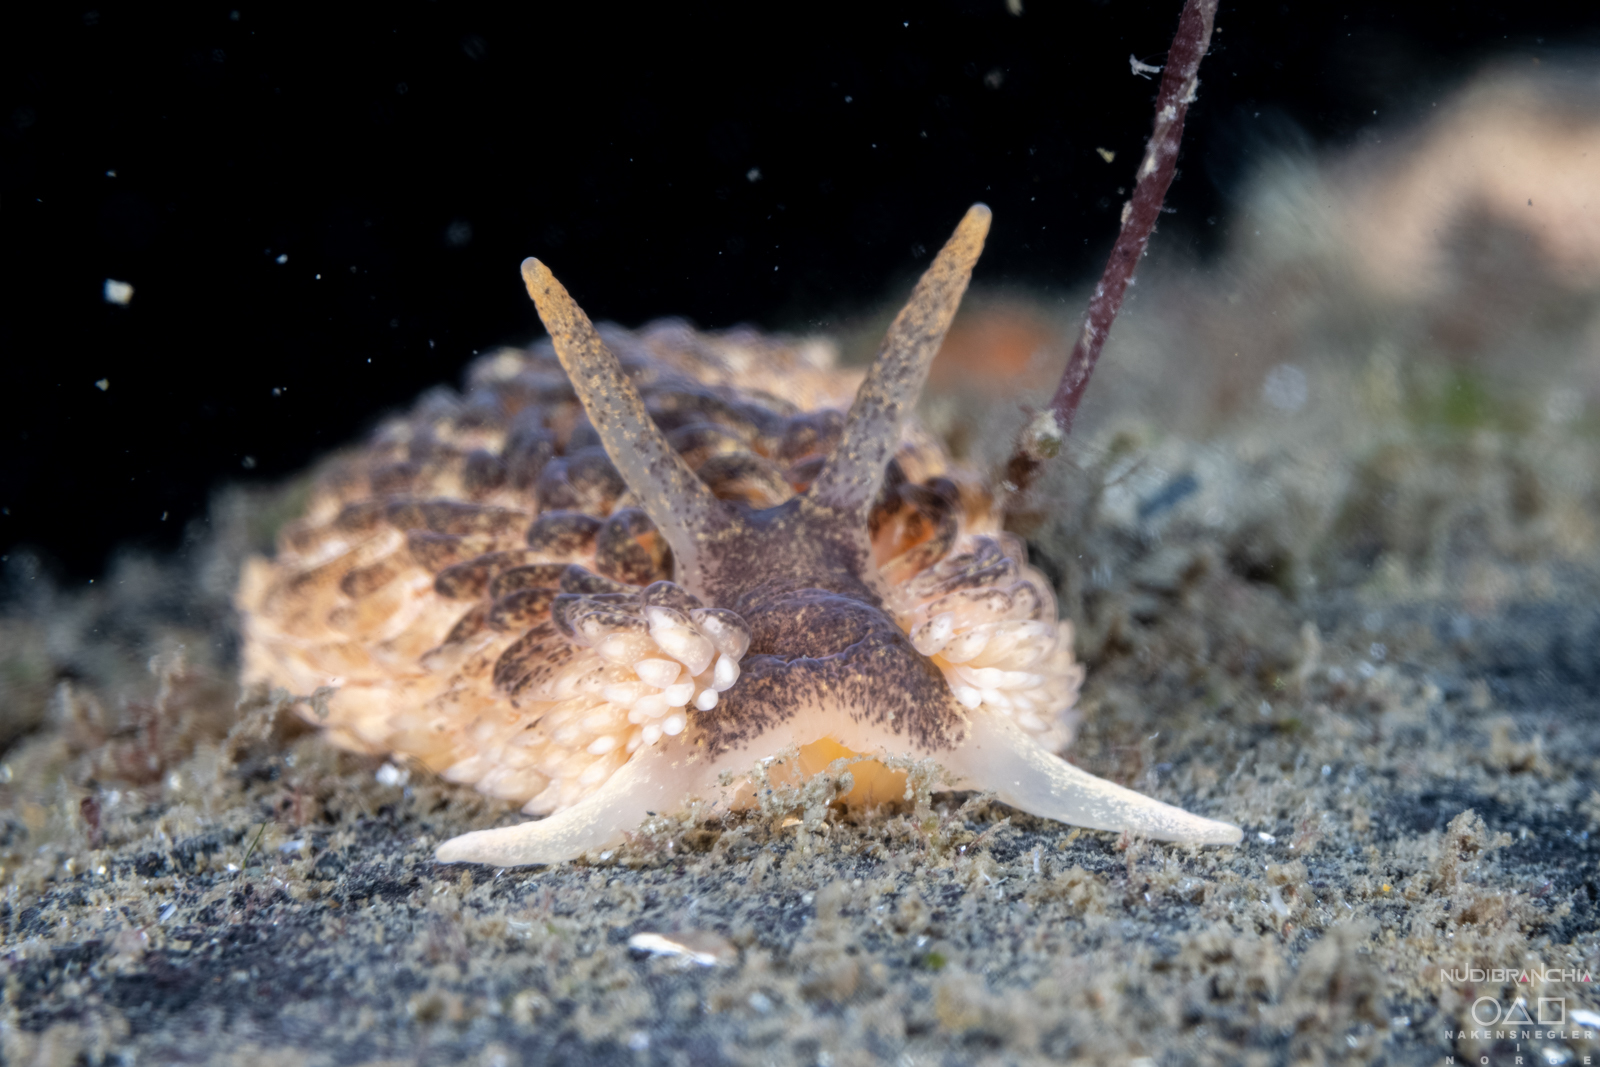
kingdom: Animalia
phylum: Mollusca
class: Gastropoda
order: Nudibranchia
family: Aeolidiidae
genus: Aeolidia
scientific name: Aeolidia papillosa
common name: Common grey sea slug
